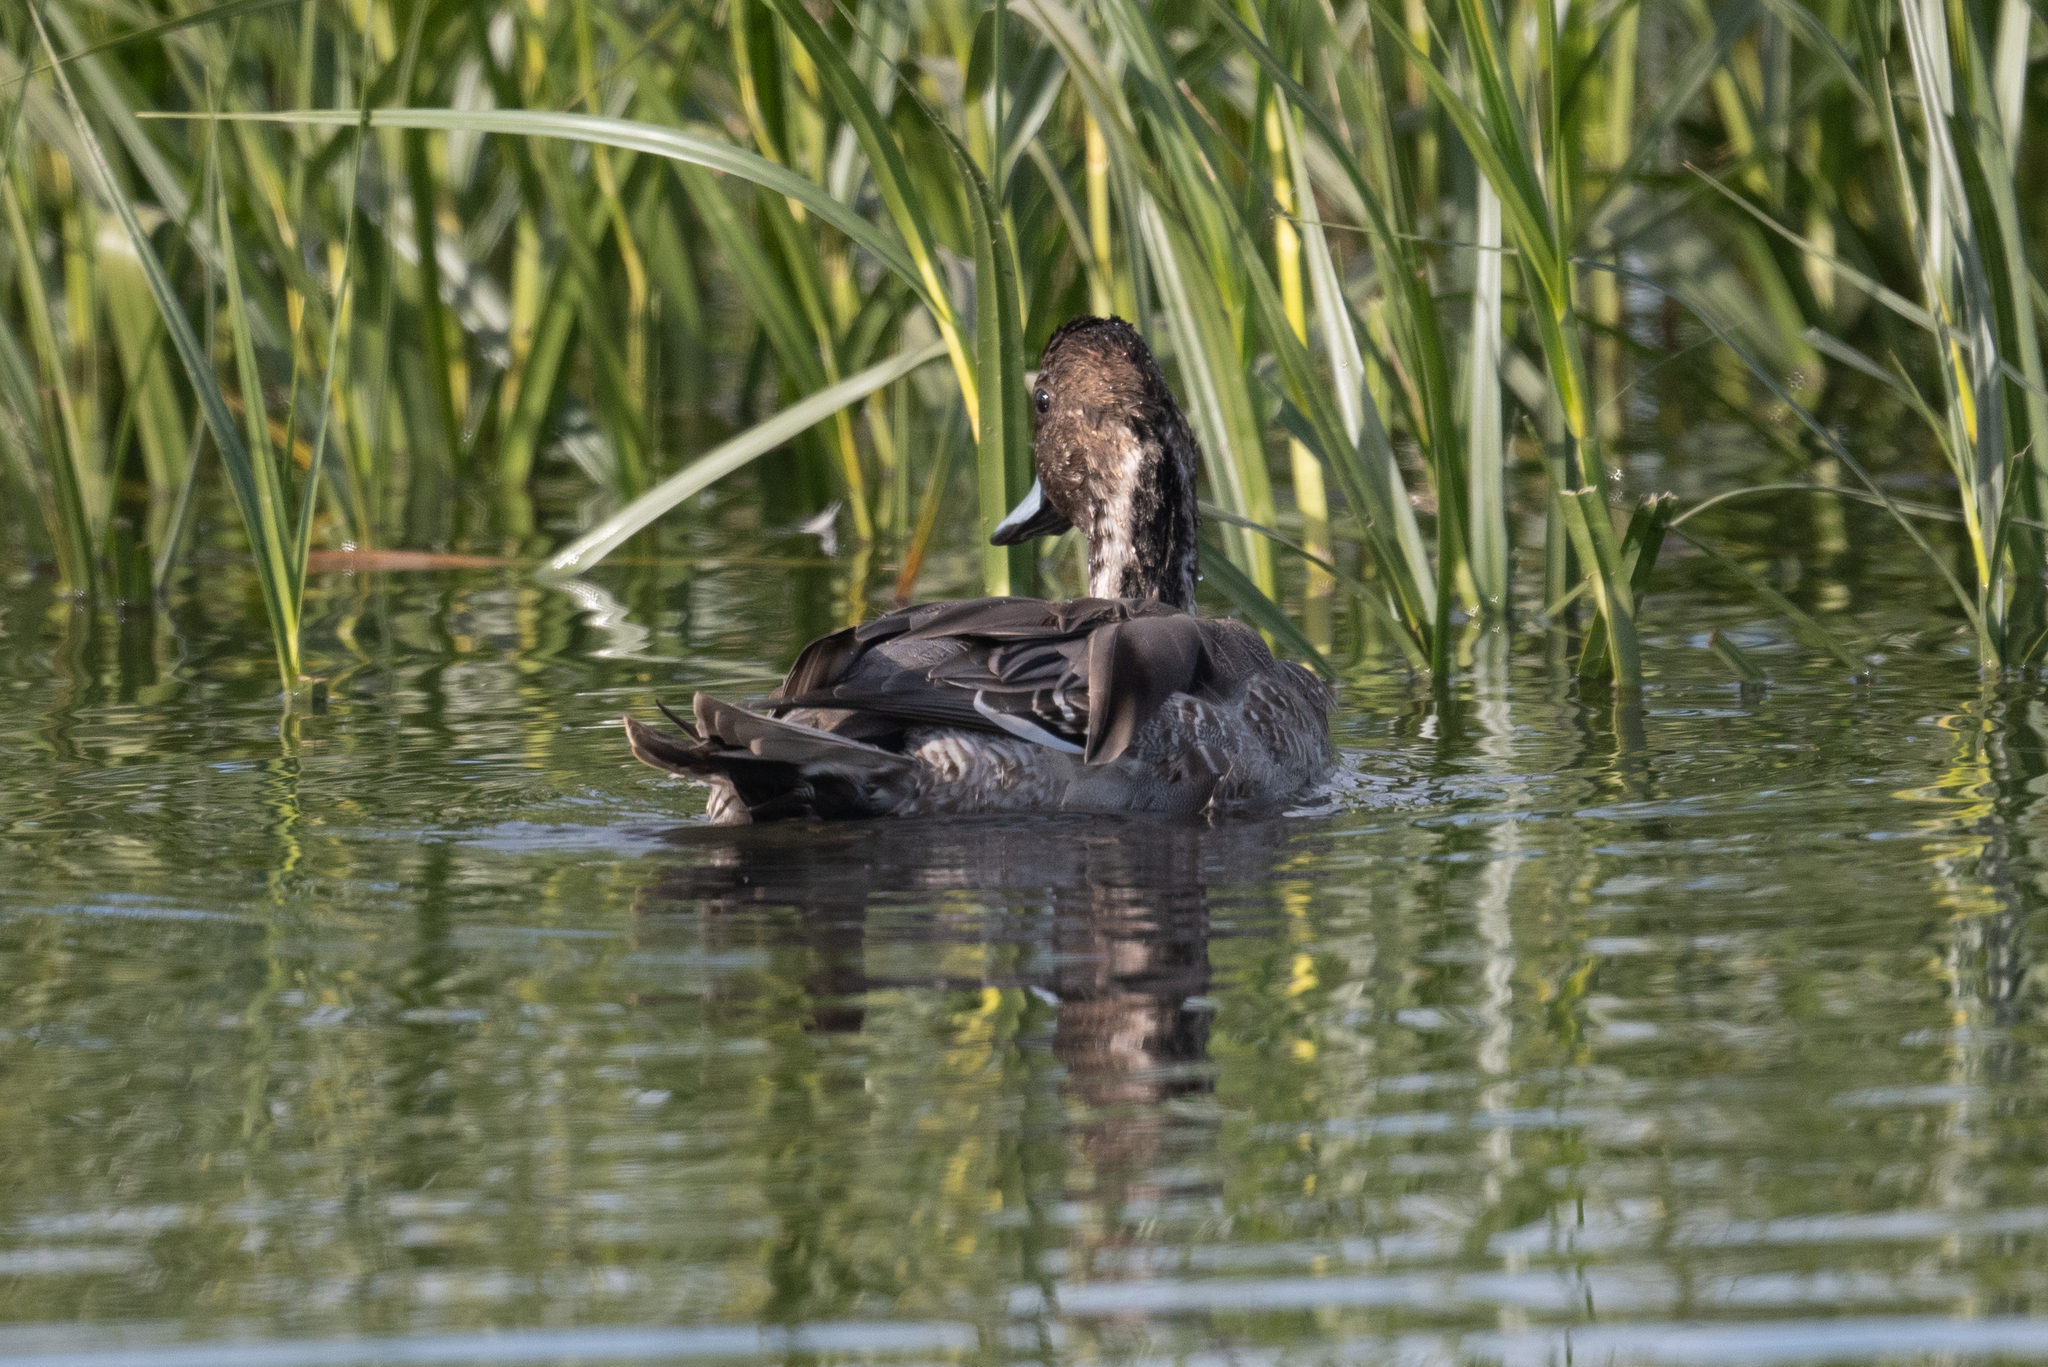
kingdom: Animalia
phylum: Chordata
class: Aves
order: Anseriformes
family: Anatidae
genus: Anas
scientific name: Anas acuta
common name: Northern pintail
